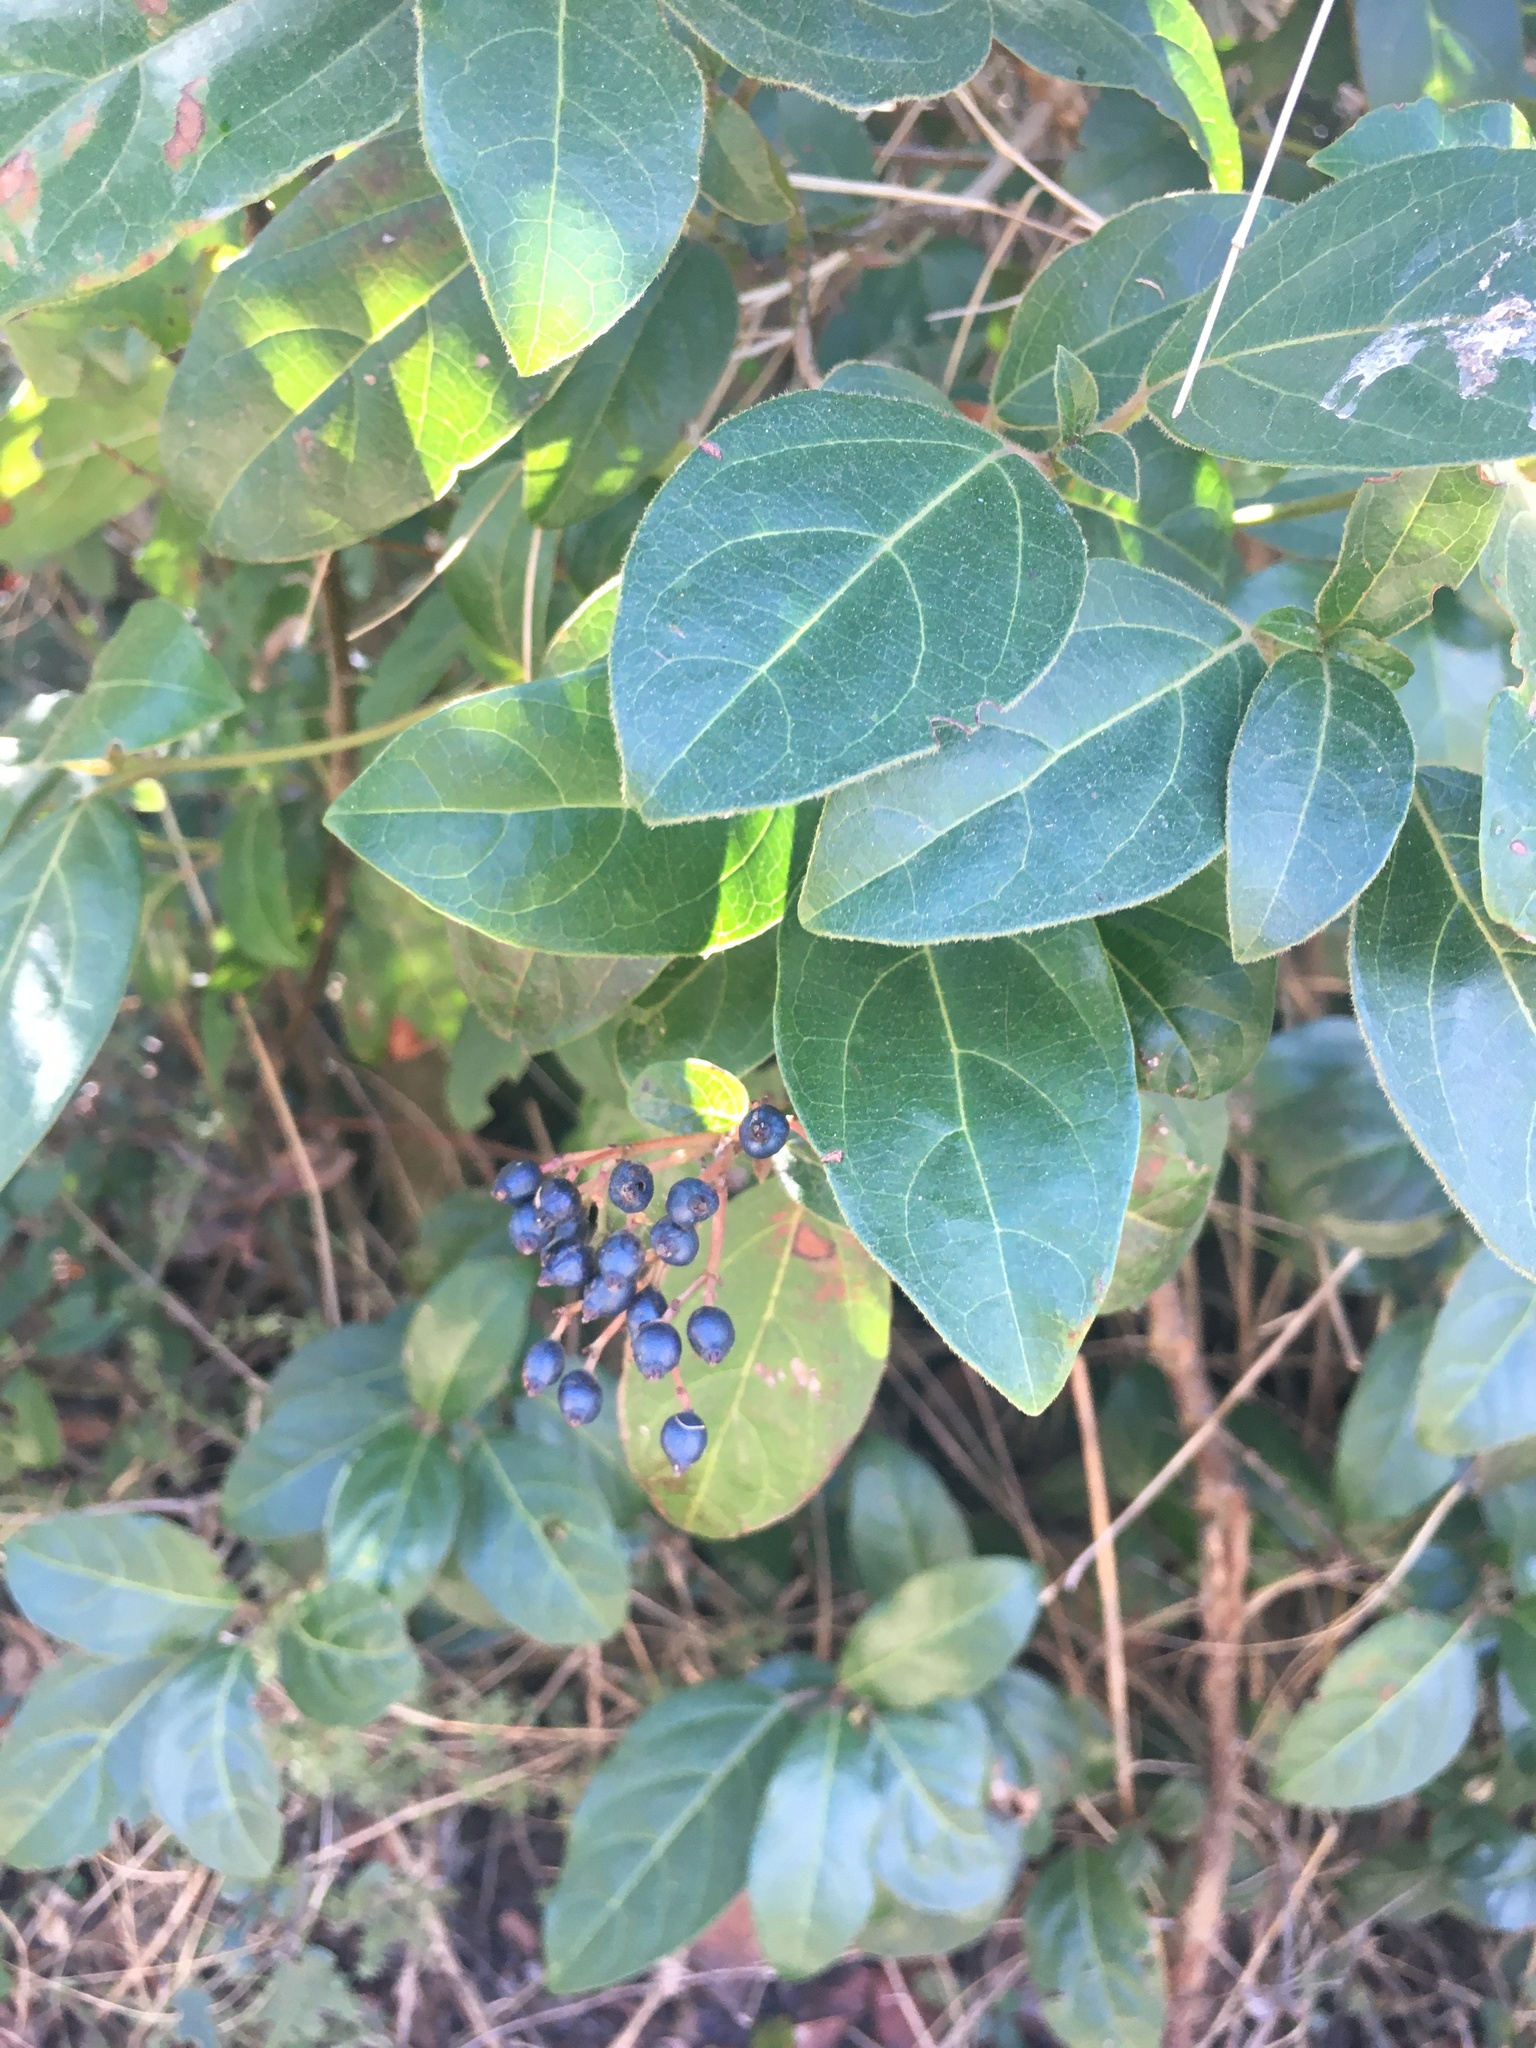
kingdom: Plantae
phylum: Tracheophyta
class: Magnoliopsida
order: Dipsacales
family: Viburnaceae
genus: Viburnum
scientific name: Viburnum tinus
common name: Laurustinus
